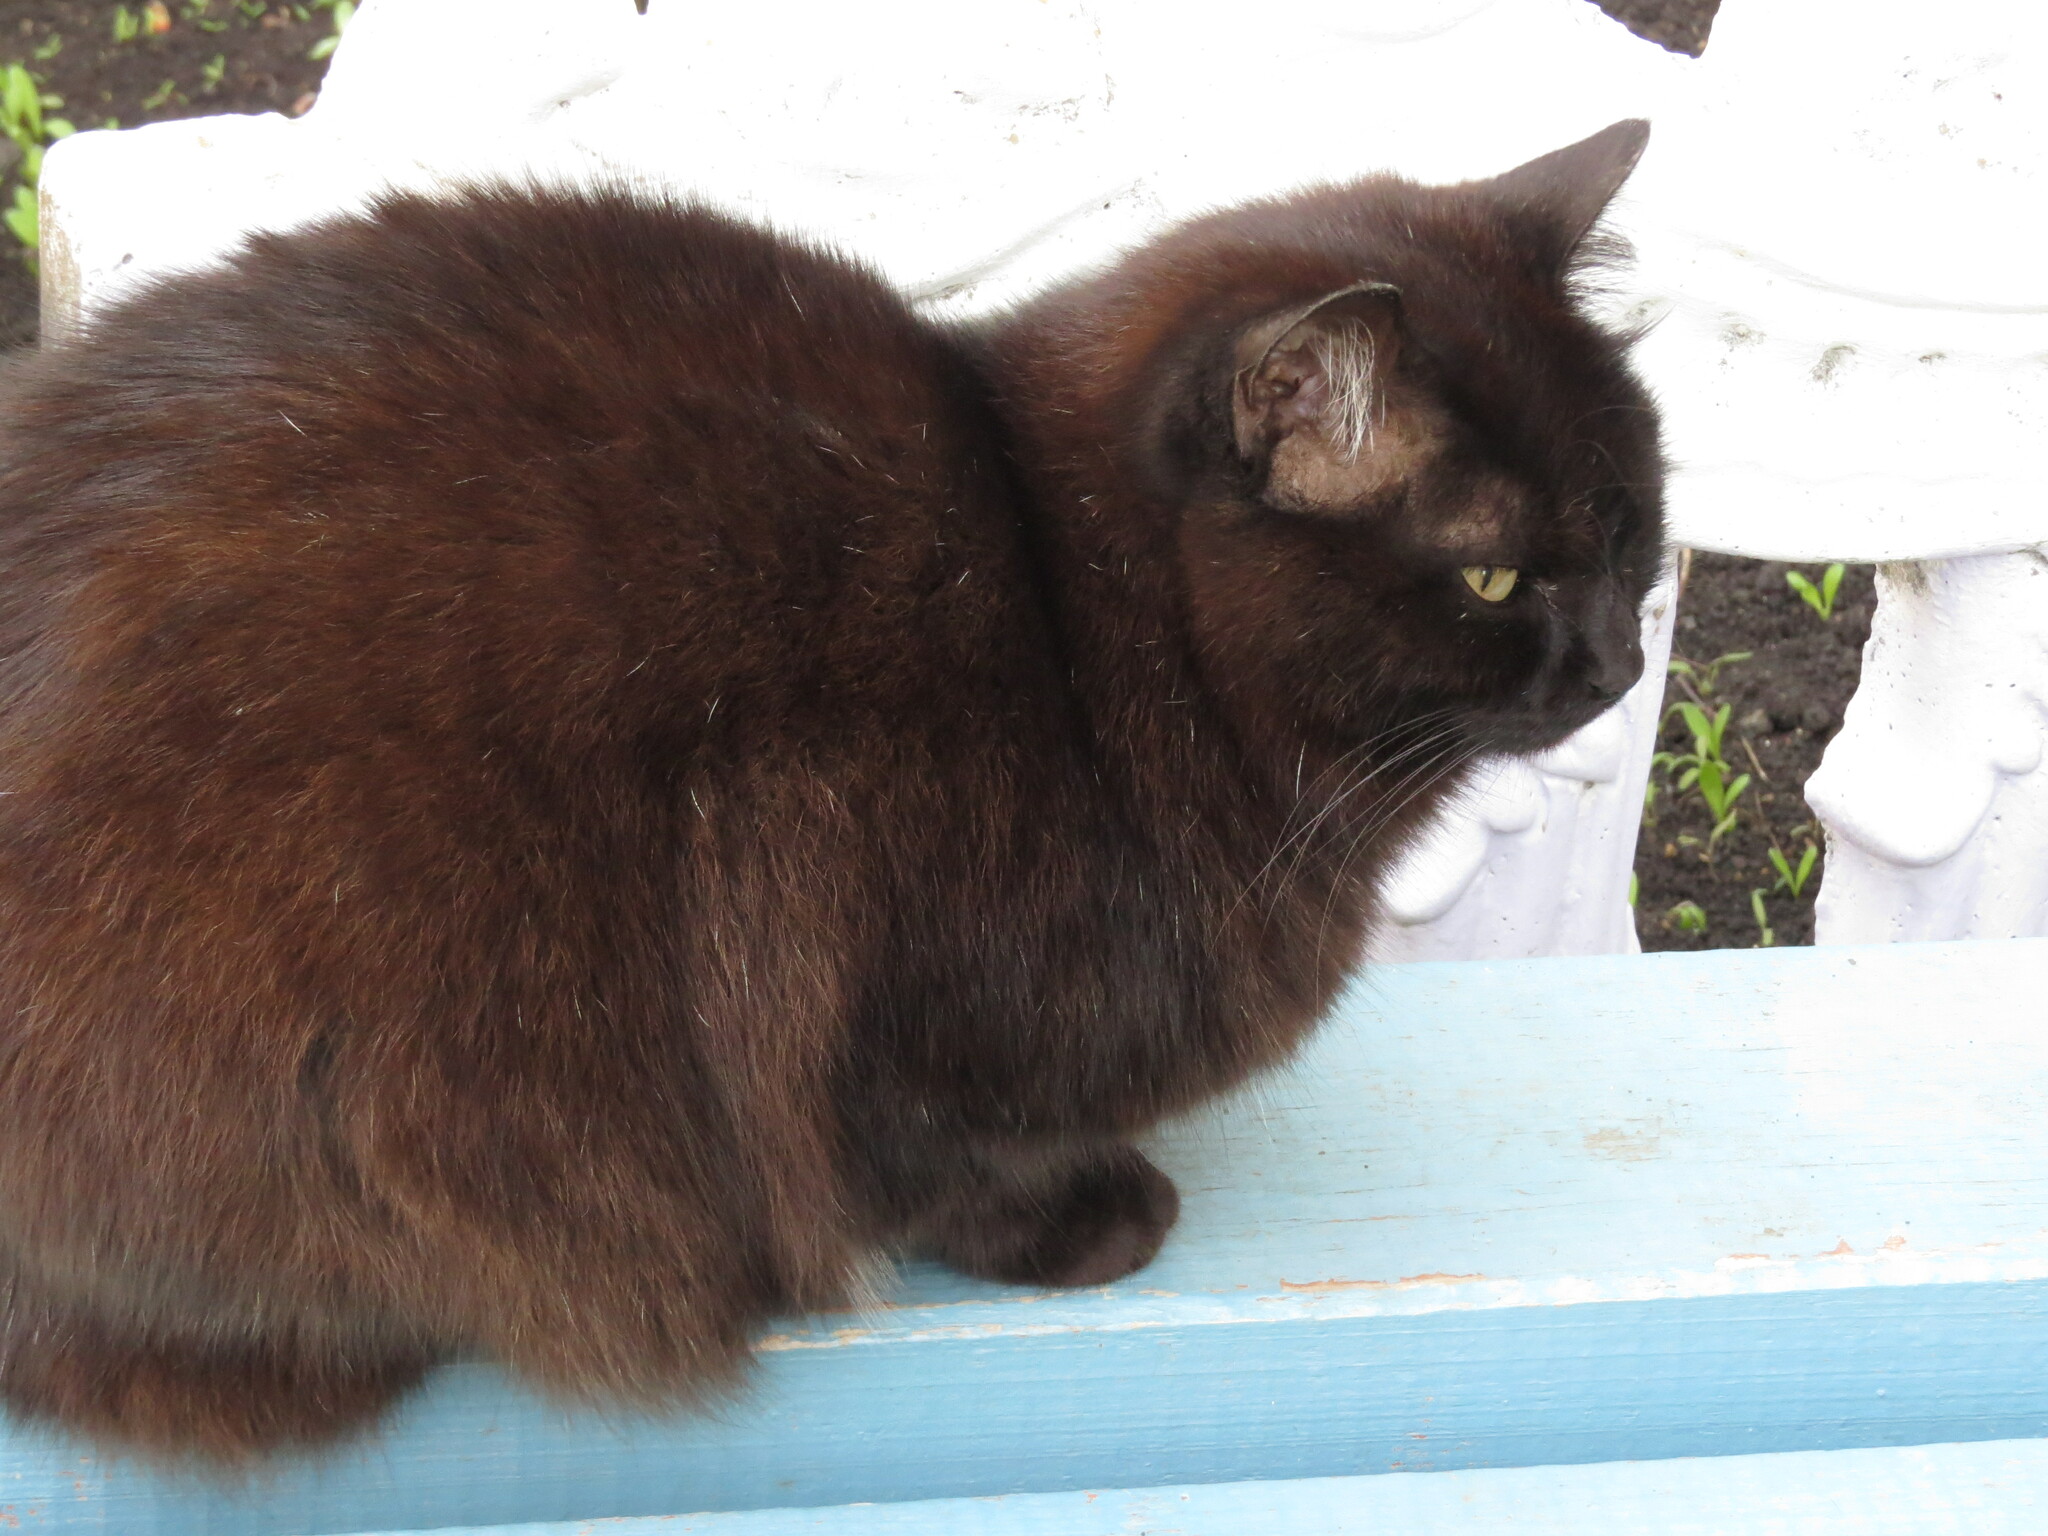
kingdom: Animalia
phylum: Chordata
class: Mammalia
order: Carnivora
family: Felidae
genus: Felis
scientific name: Felis catus
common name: Domestic cat
